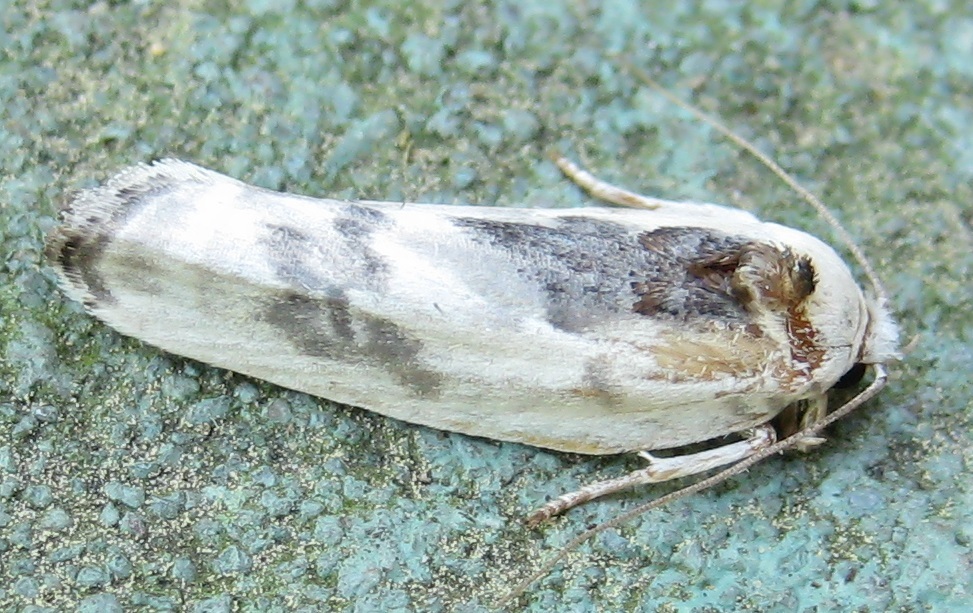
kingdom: Animalia
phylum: Arthropoda
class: Insecta
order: Lepidoptera
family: Depressariidae
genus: Antaeotricha
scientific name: Antaeotricha schlaegeri
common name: Schlaeger's fruitworm moth
